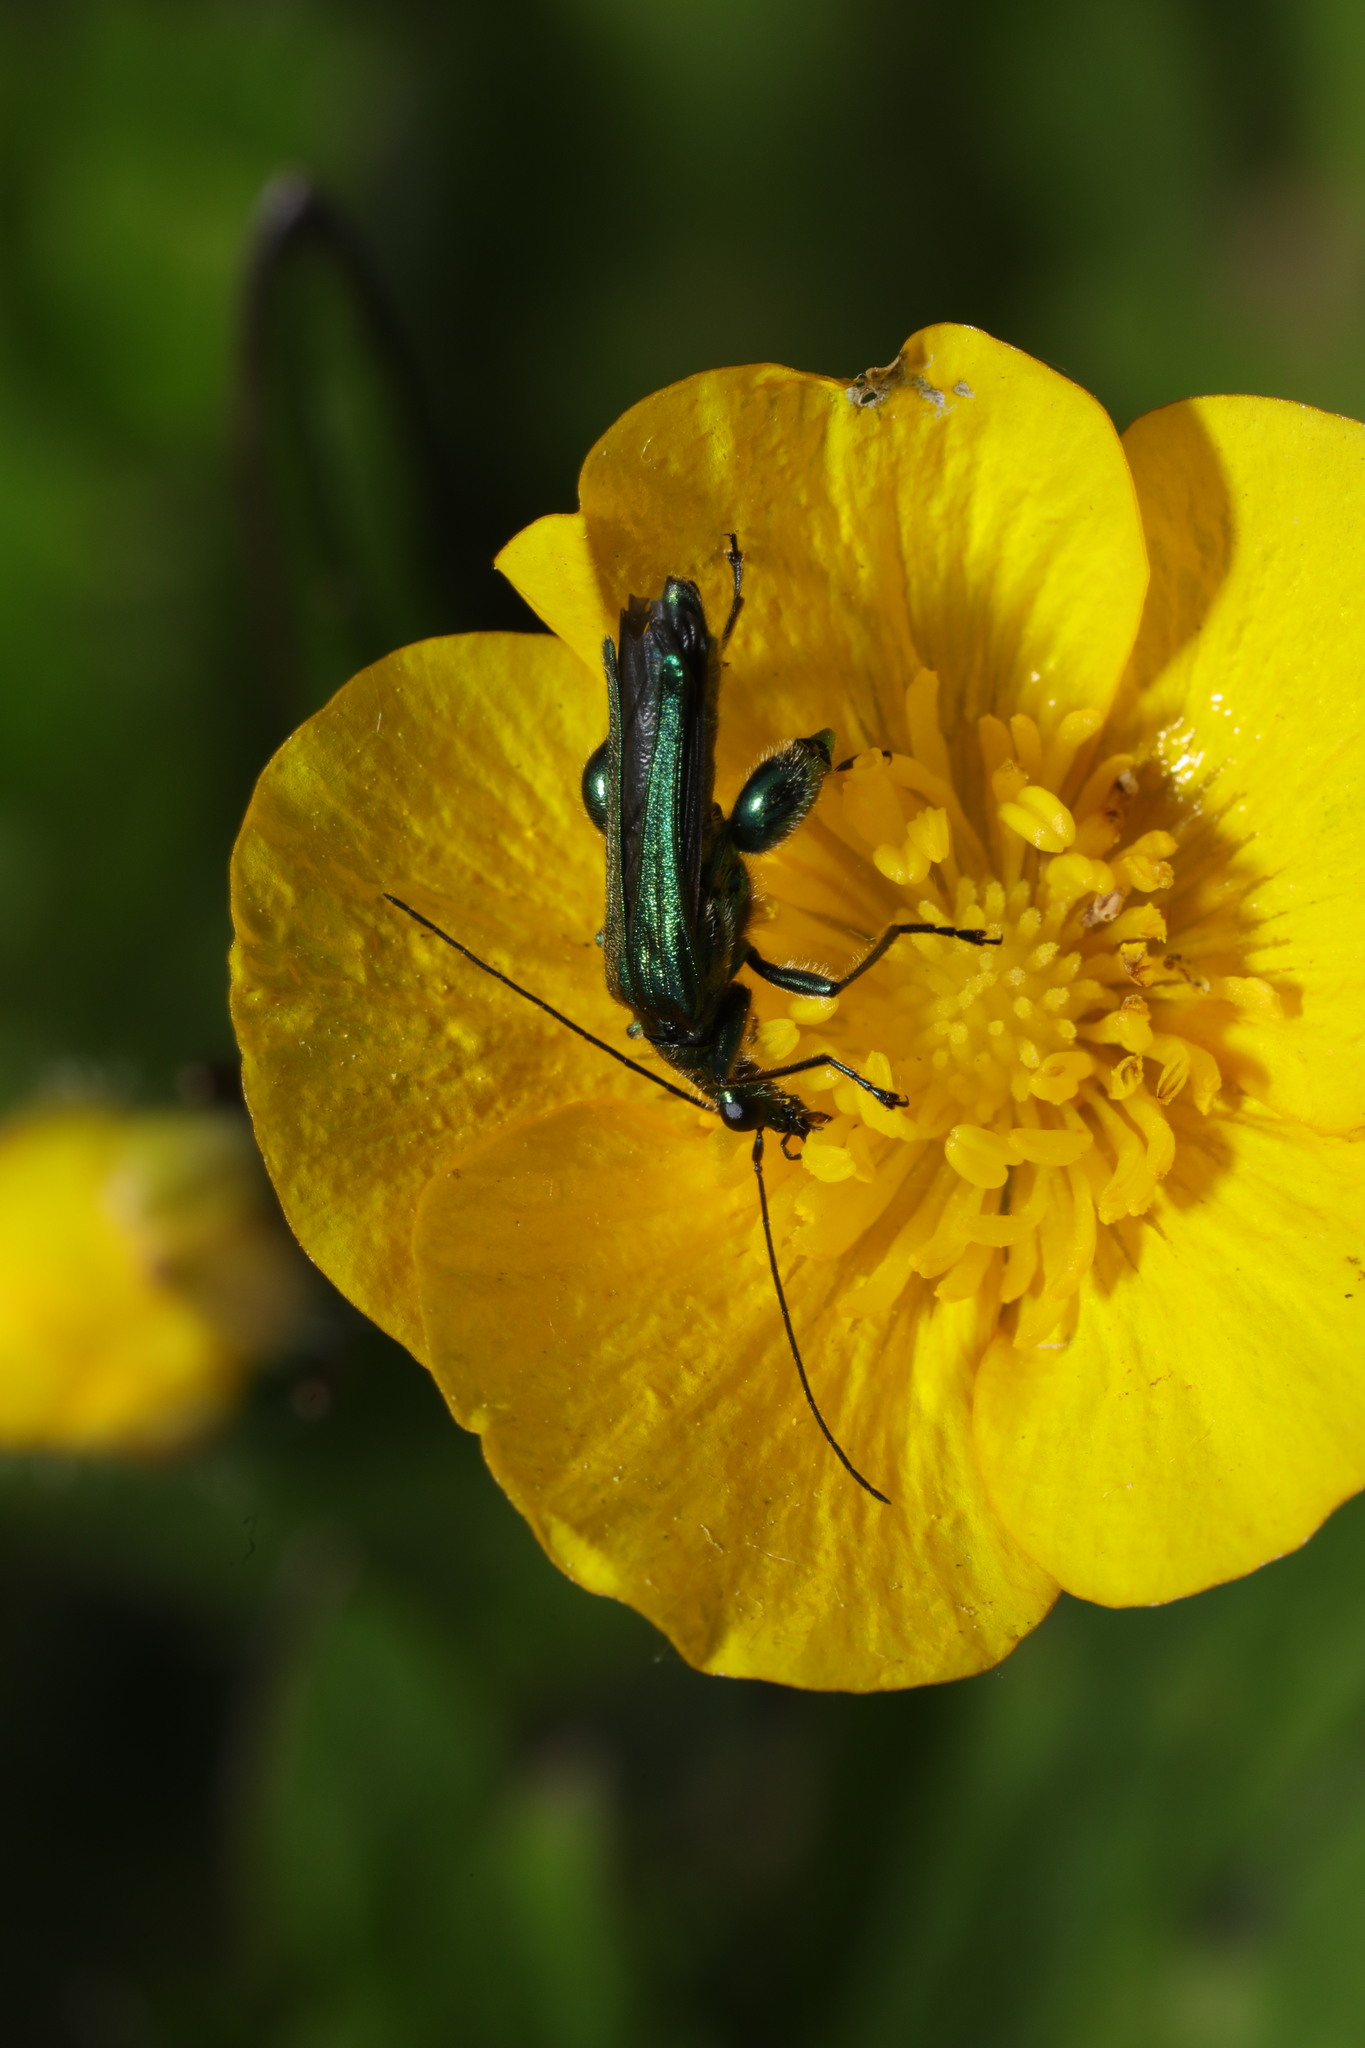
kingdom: Animalia
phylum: Arthropoda
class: Insecta
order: Coleoptera
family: Oedemeridae
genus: Oedemera
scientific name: Oedemera nobilis
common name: Swollen-thighed beetle
